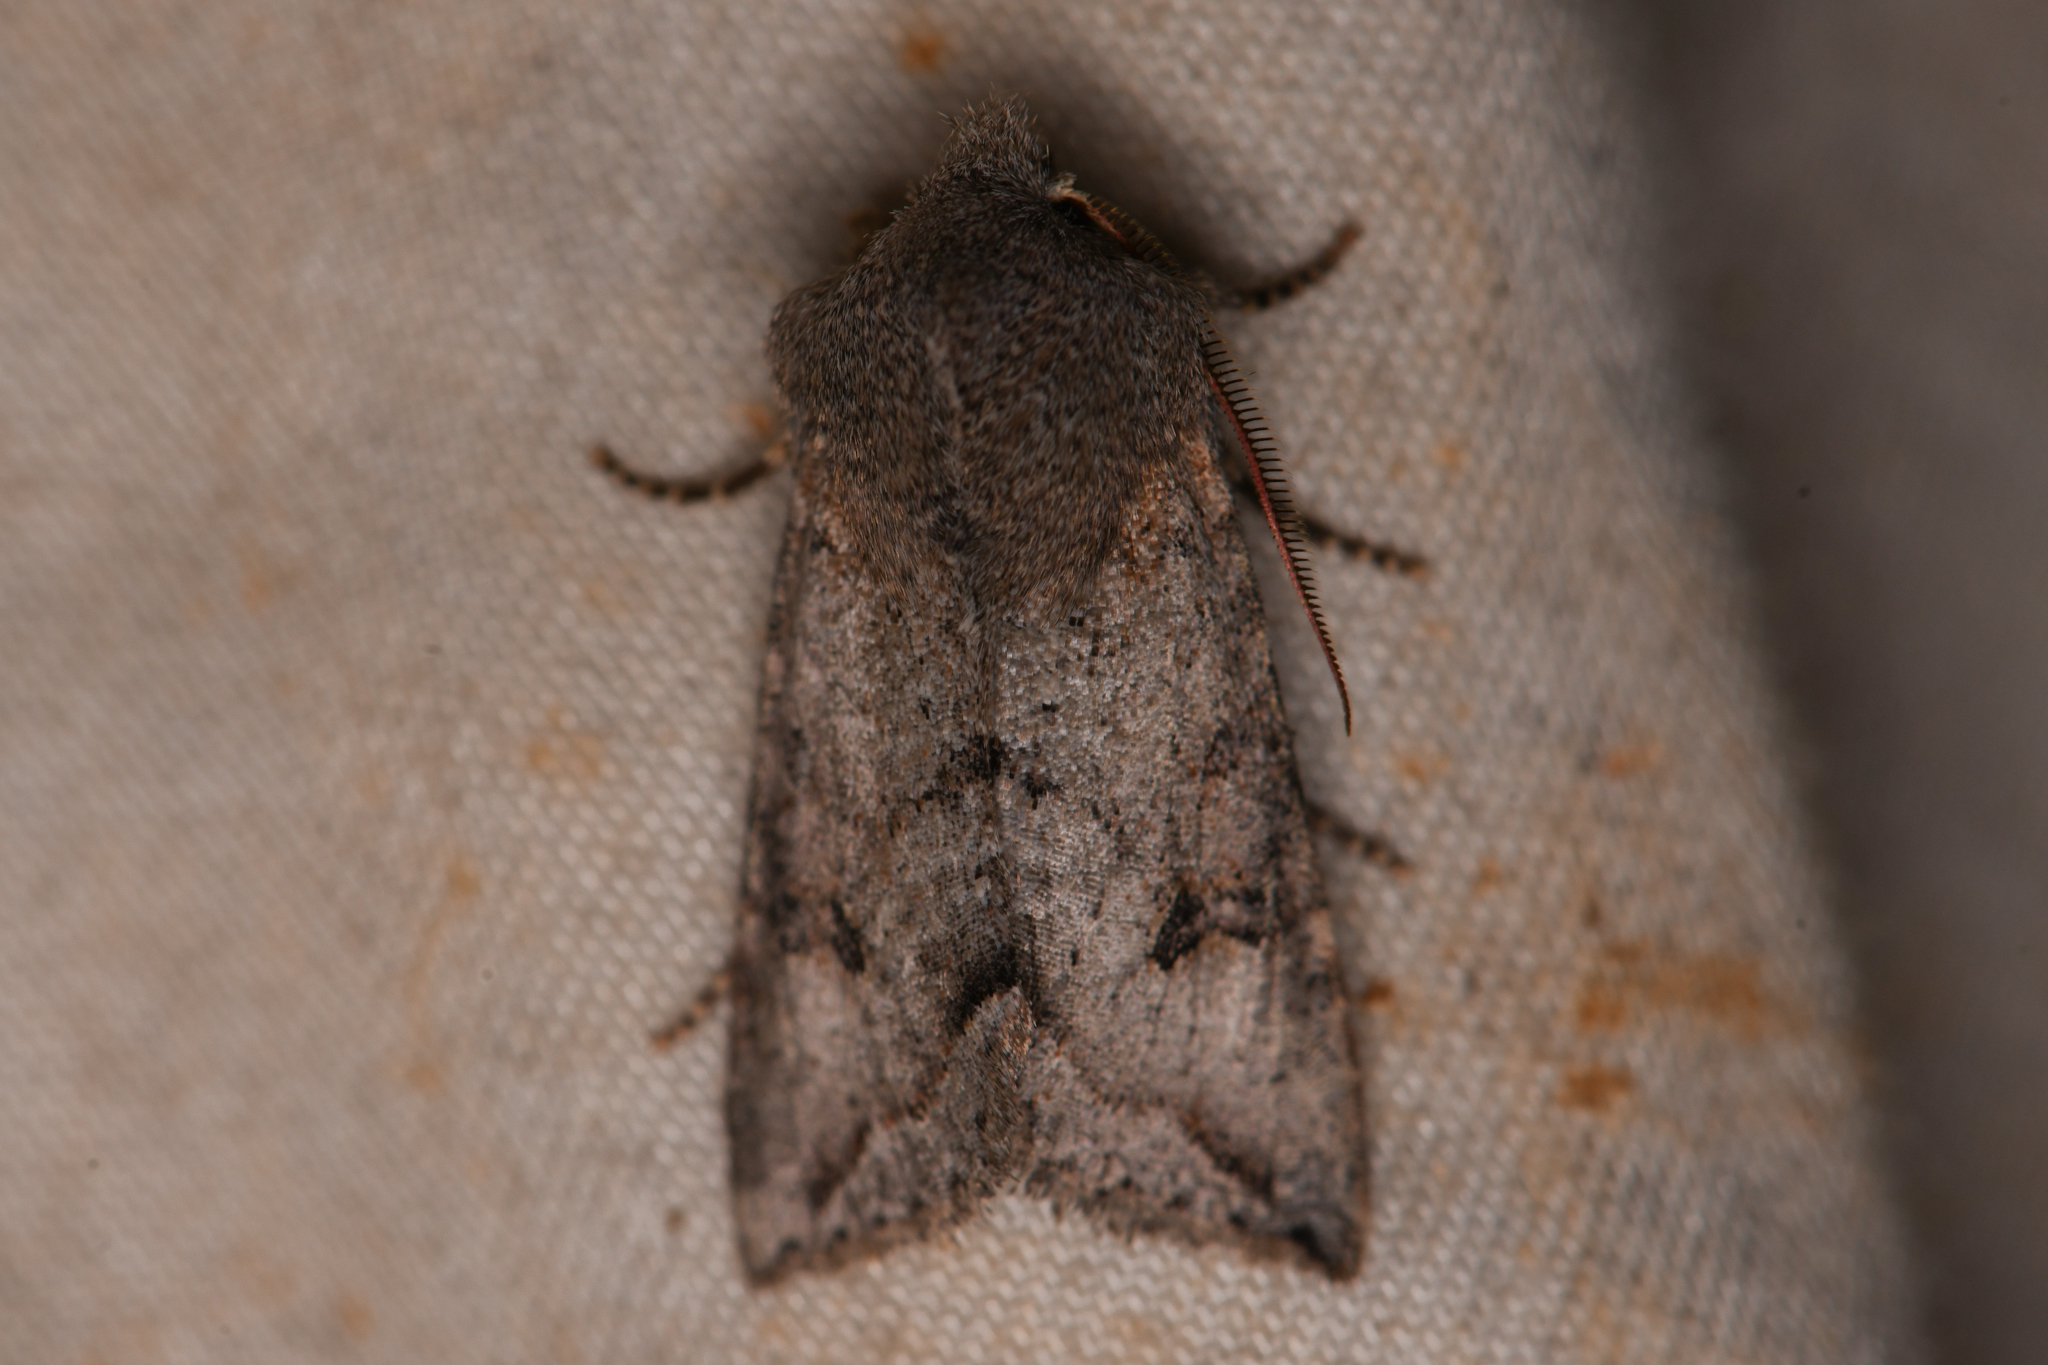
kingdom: Animalia
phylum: Arthropoda
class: Insecta
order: Lepidoptera
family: Noctuidae
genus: Orthosia
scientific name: Orthosia erythrolita
